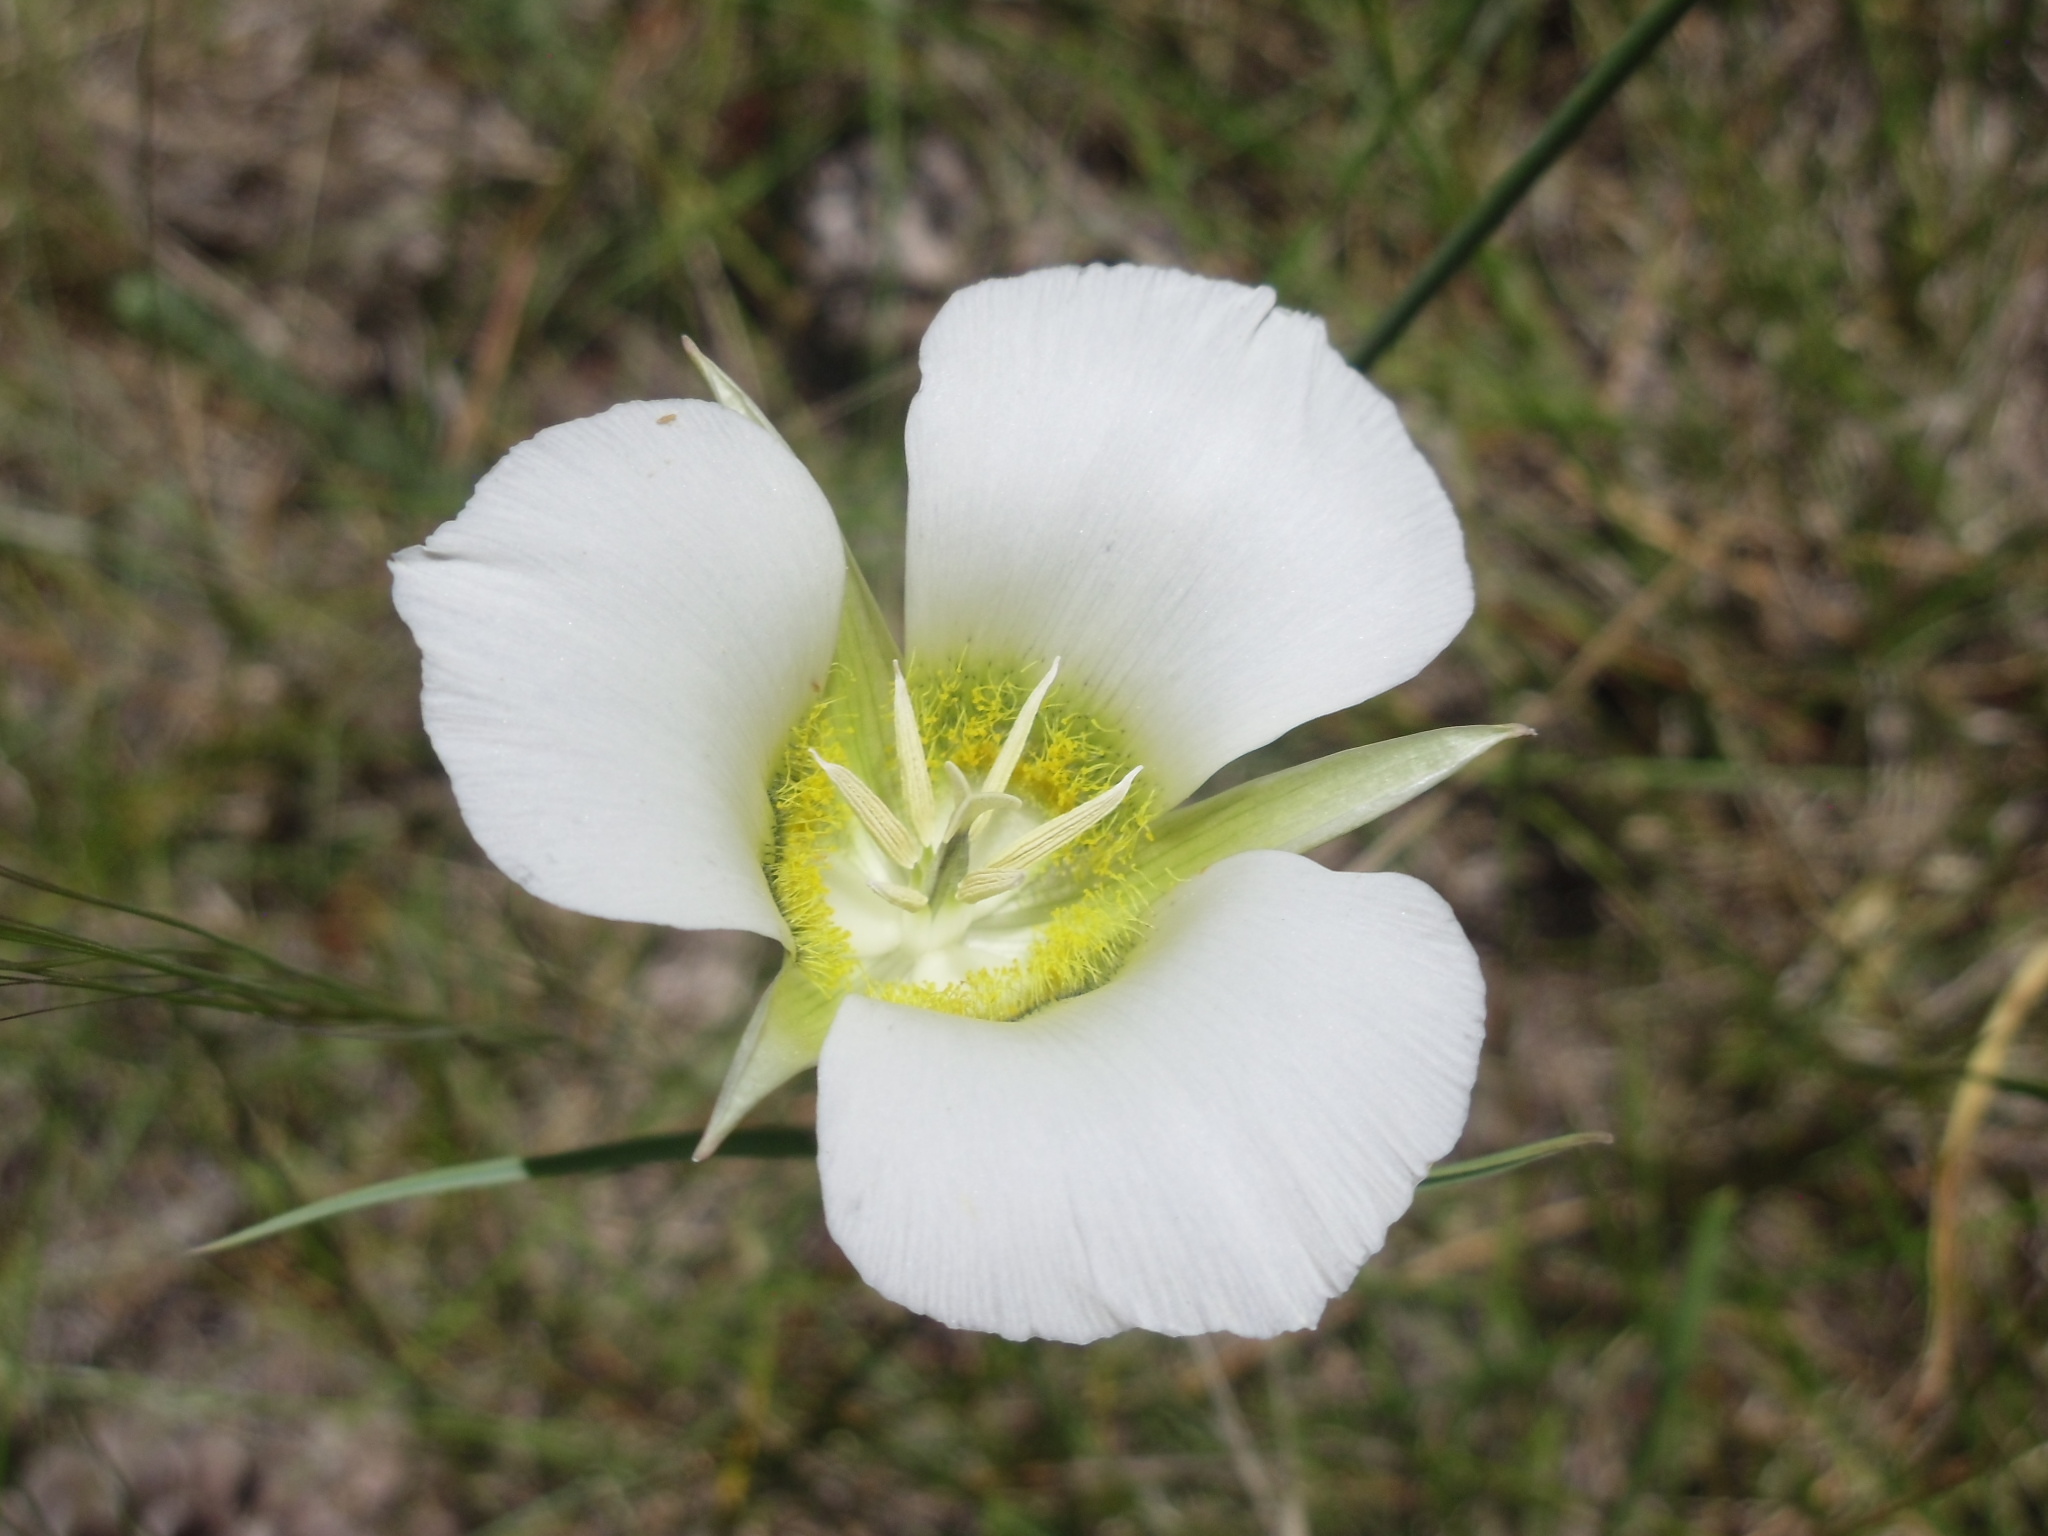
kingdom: Plantae
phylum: Tracheophyta
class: Liliopsida
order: Liliales
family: Liliaceae
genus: Calochortus
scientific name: Calochortus gunnisonii
